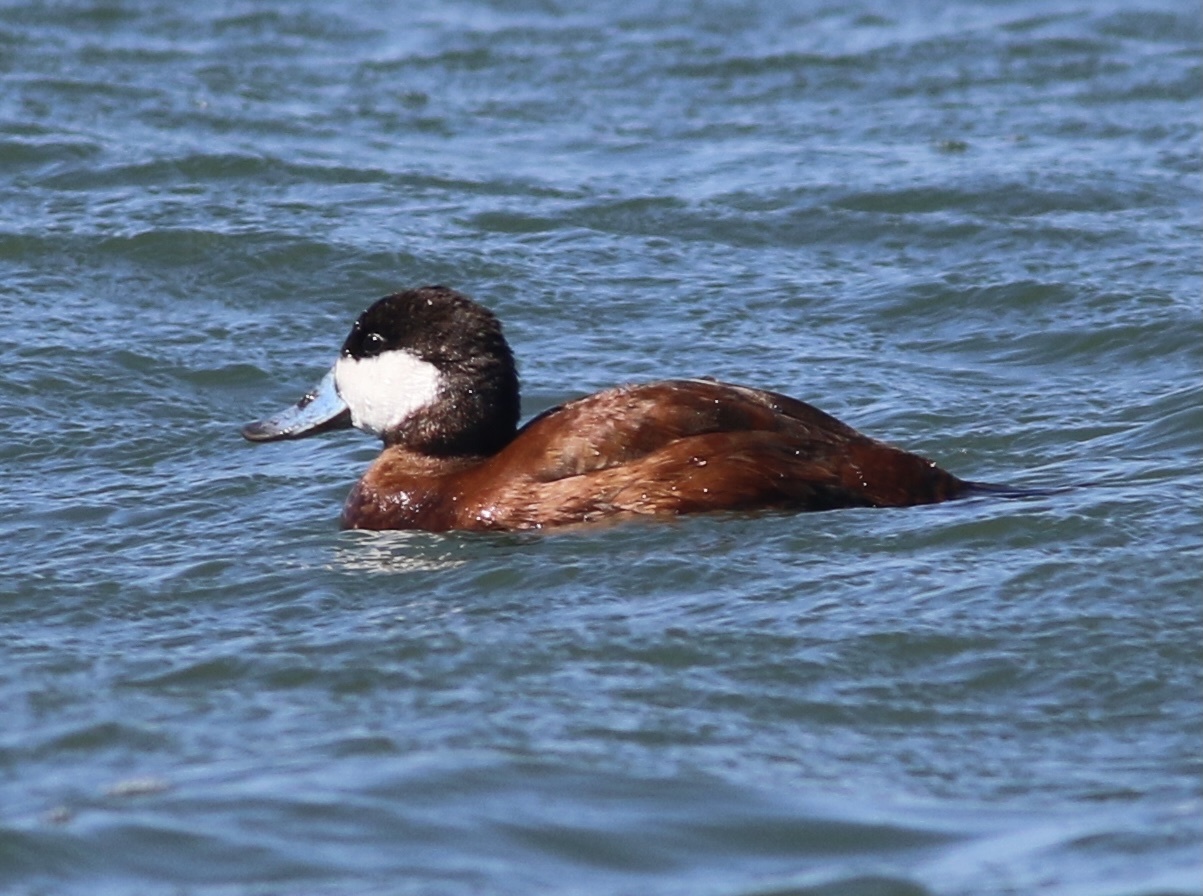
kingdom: Animalia
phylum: Chordata
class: Aves
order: Anseriformes
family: Anatidae
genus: Oxyura
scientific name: Oxyura jamaicensis
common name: Ruddy duck
